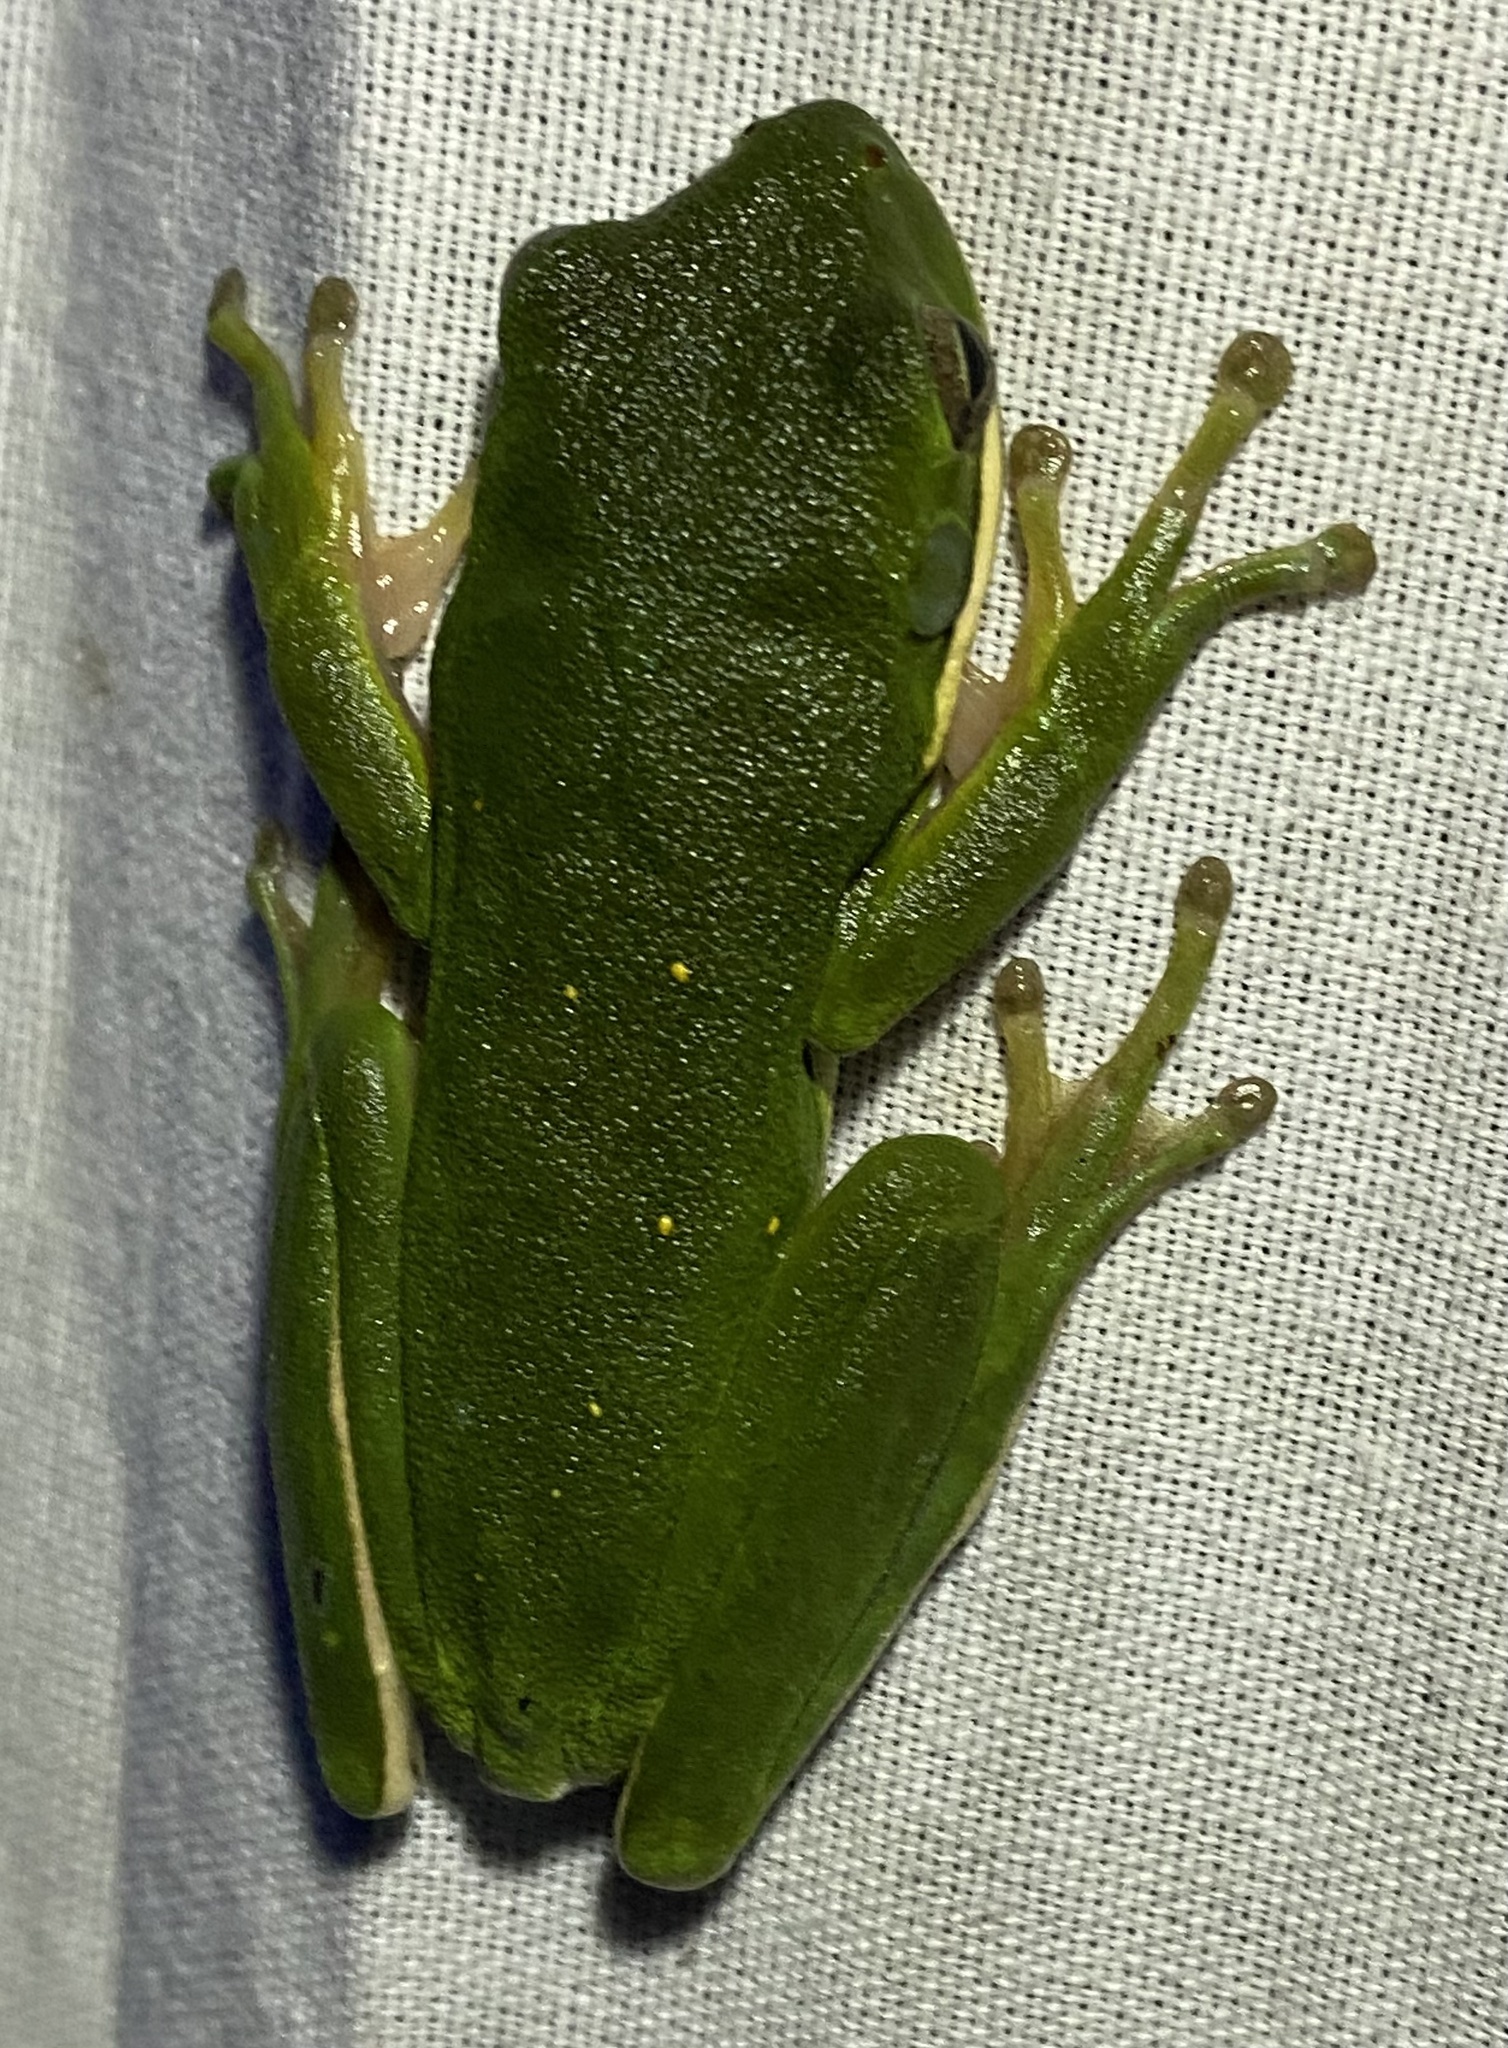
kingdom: Animalia
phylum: Chordata
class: Amphibia
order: Anura
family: Hylidae
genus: Dryophytes
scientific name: Dryophytes cinereus
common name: Green treefrog
